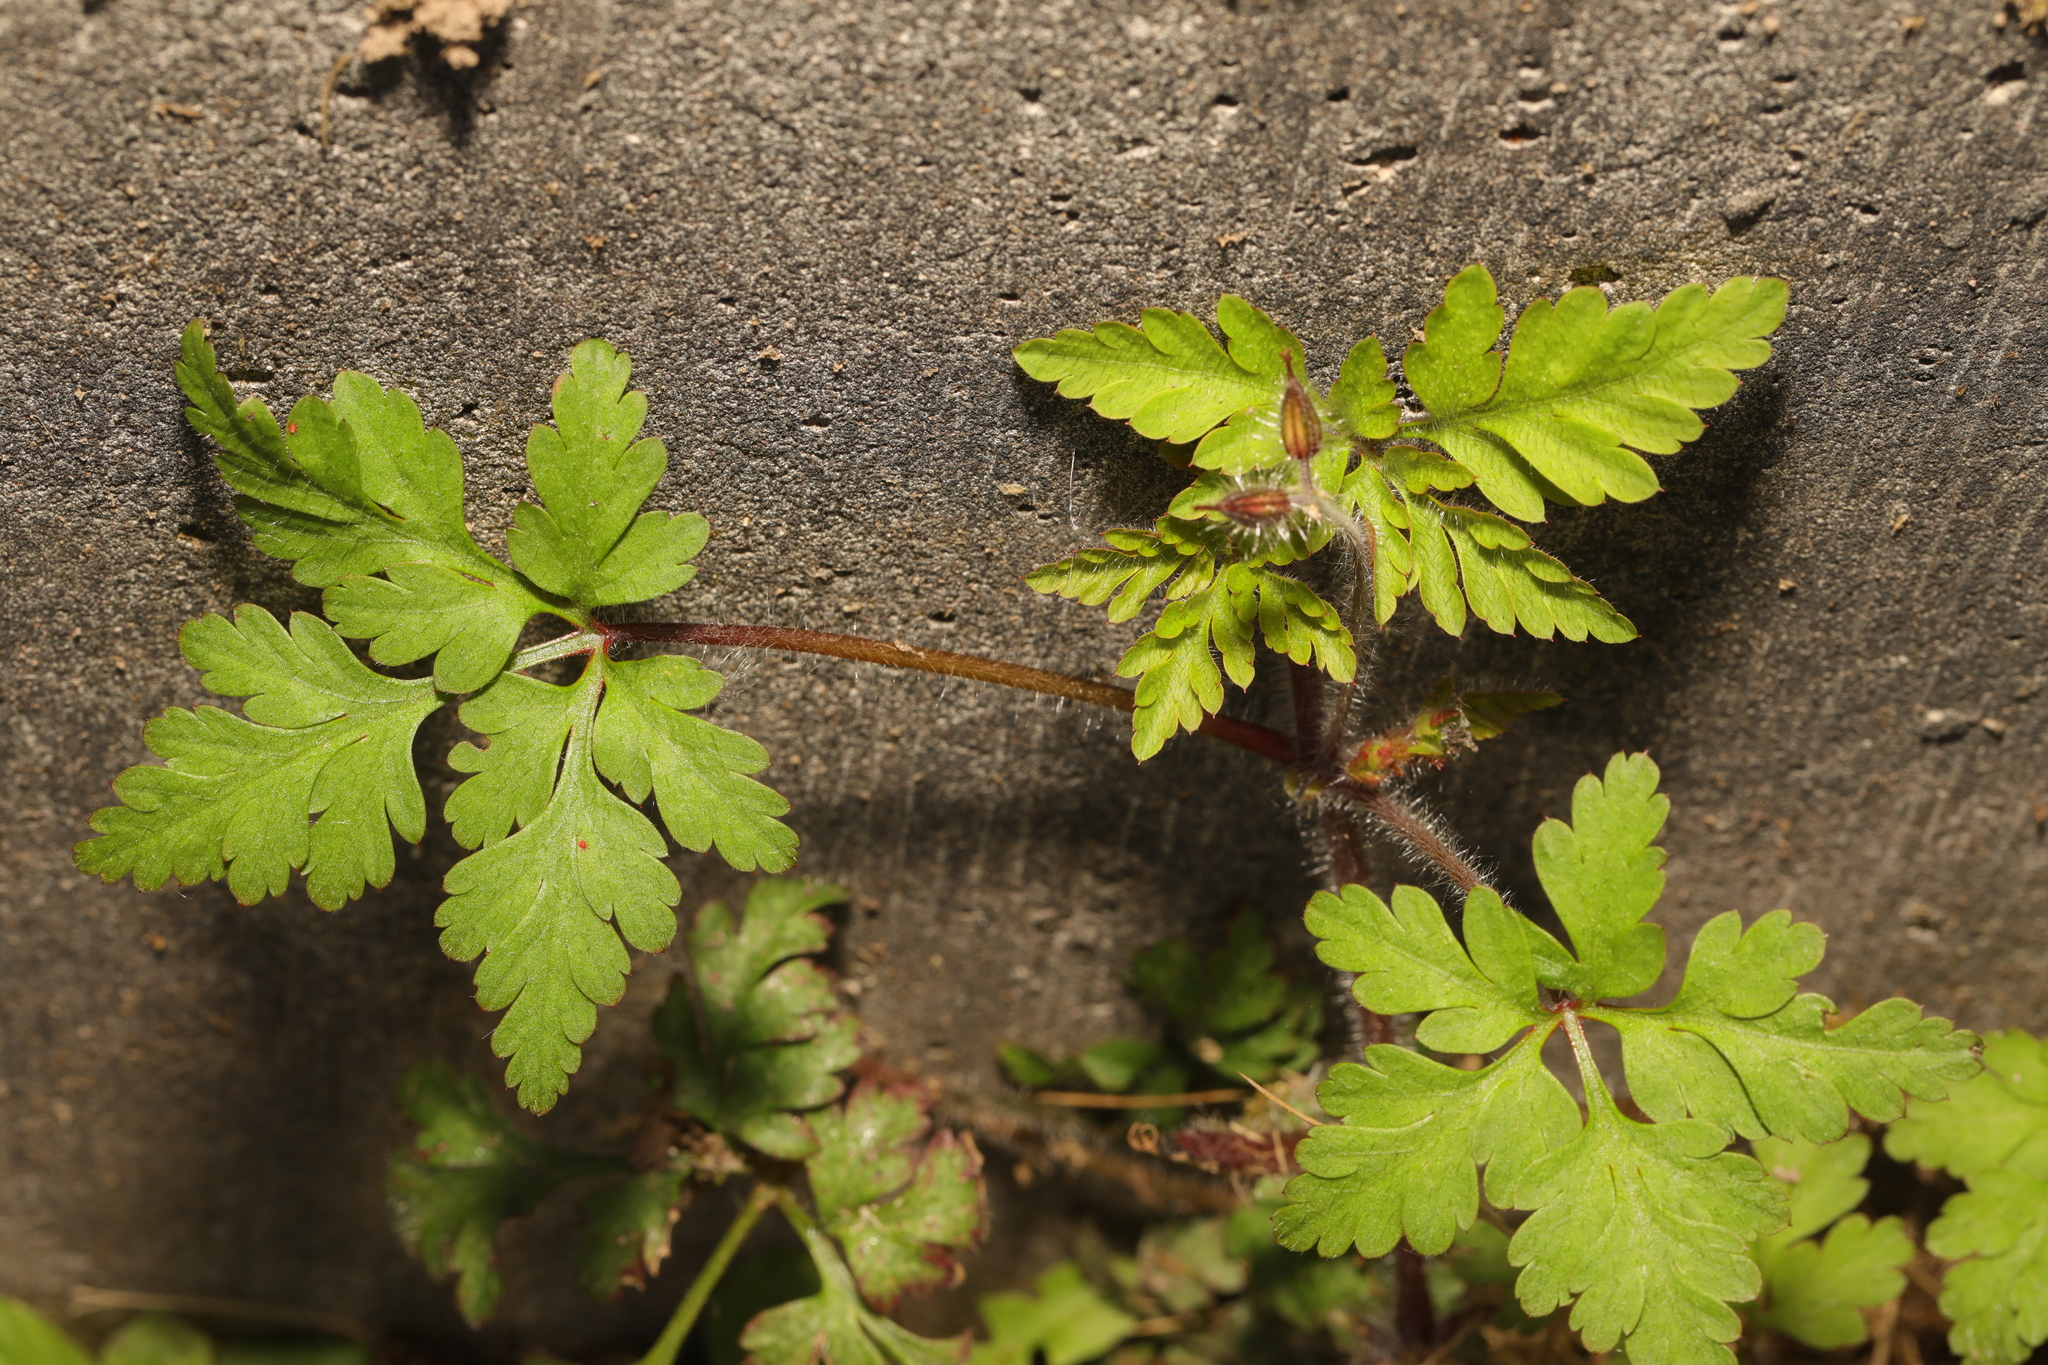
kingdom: Plantae
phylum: Tracheophyta
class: Magnoliopsida
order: Geraniales
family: Geraniaceae
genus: Geranium
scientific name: Geranium robertianum
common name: Herb-robert
